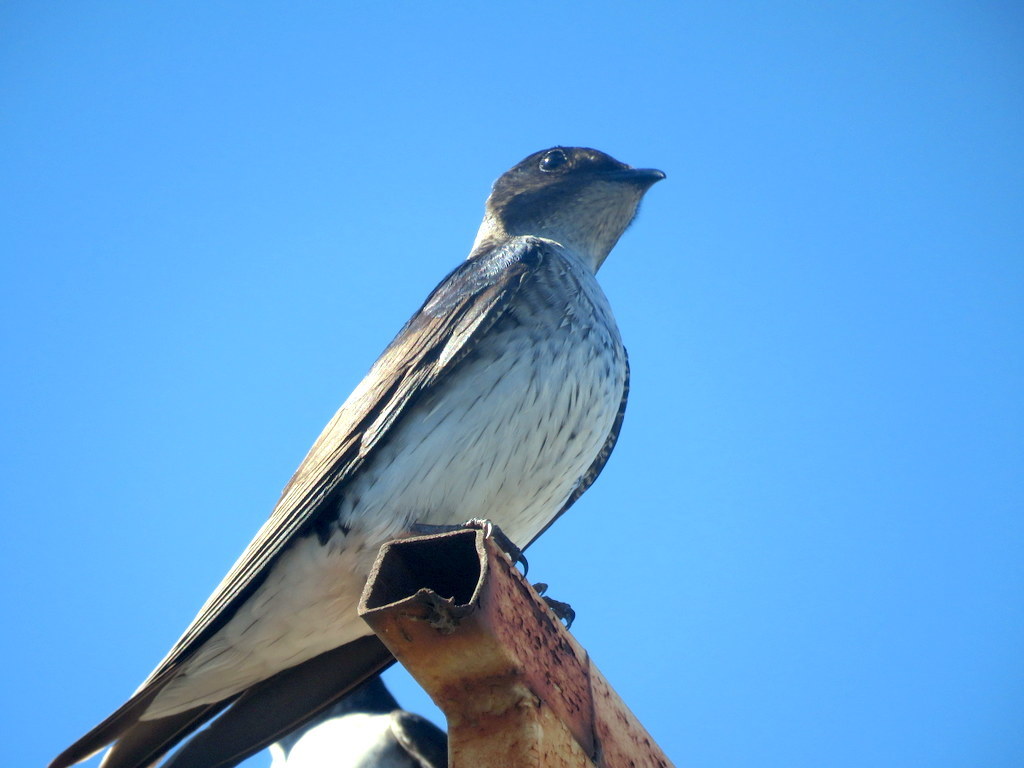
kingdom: Animalia
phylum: Chordata
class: Aves
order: Passeriformes
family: Hirundinidae
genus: Progne
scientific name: Progne chalybea
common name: Grey-breasted martin
